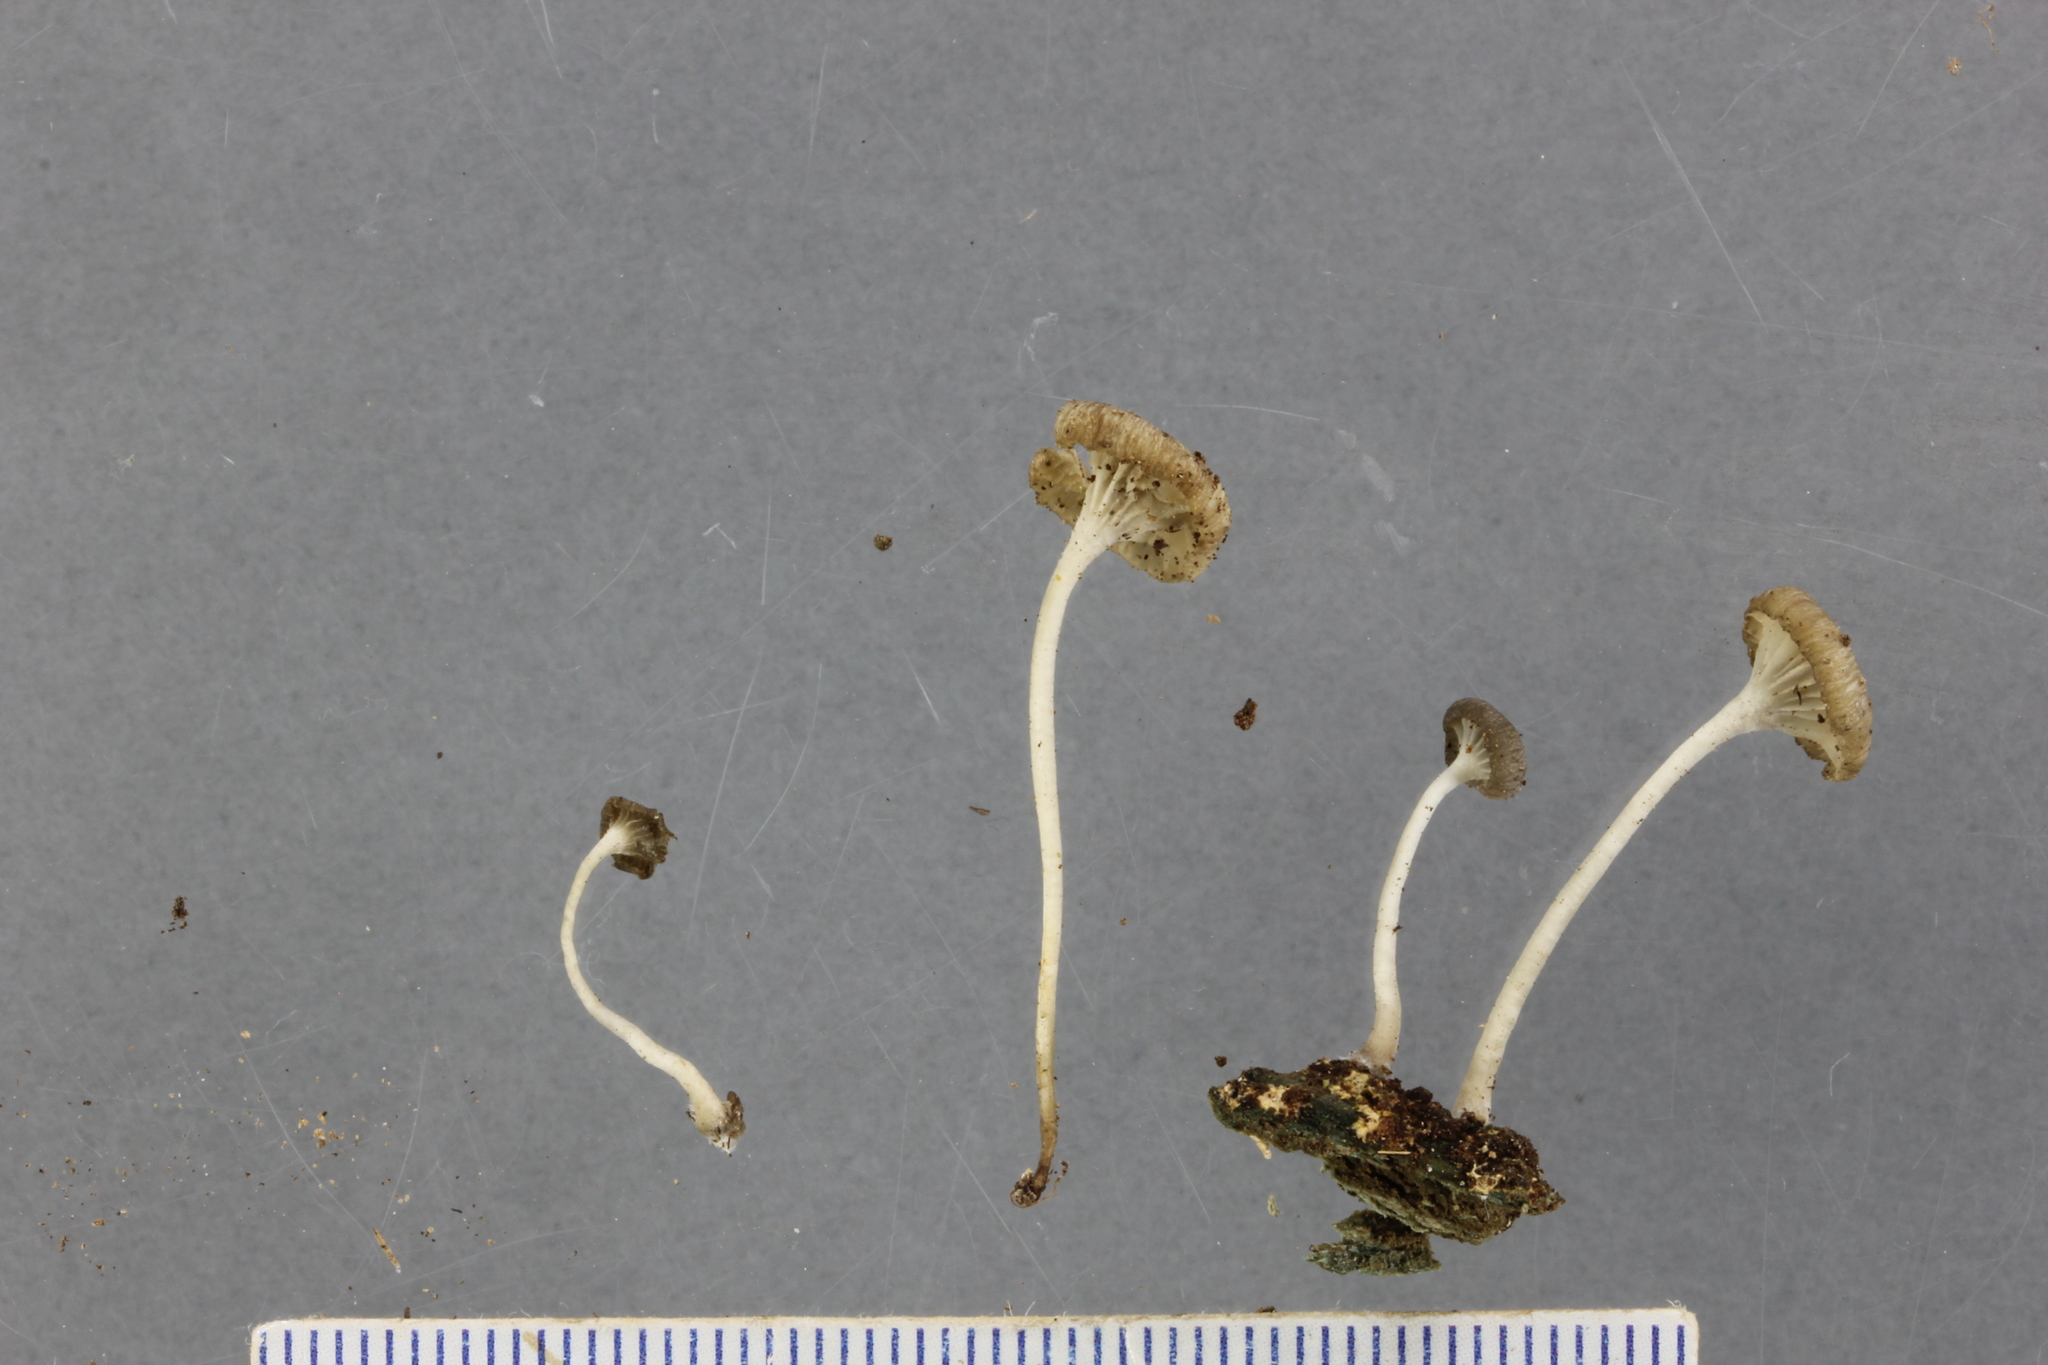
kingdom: Fungi
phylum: Basidiomycota
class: Agaricomycetes
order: Agaricales
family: Marasmiaceae
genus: Clitocybula
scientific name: Clitocybula grisella
